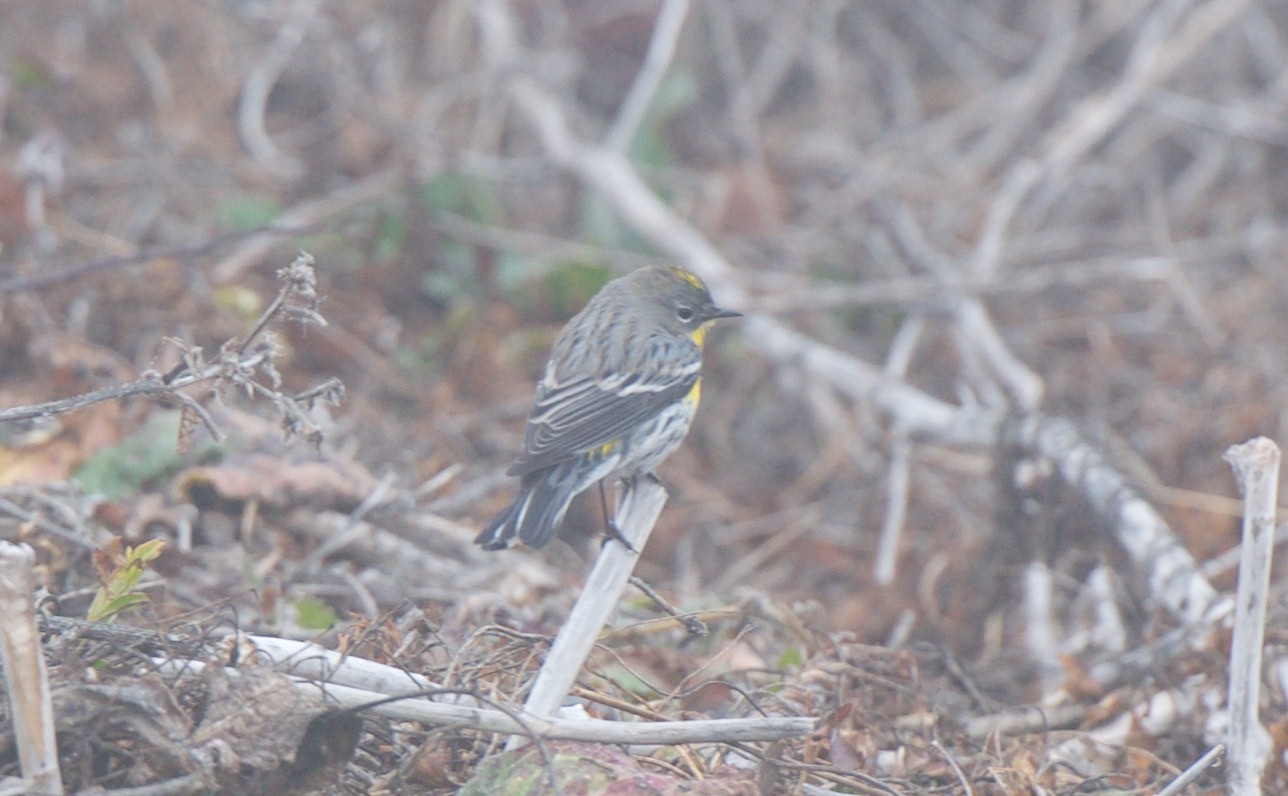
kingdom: Animalia
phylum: Chordata
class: Aves
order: Passeriformes
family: Parulidae
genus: Setophaga
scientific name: Setophaga coronata
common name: Myrtle warbler
